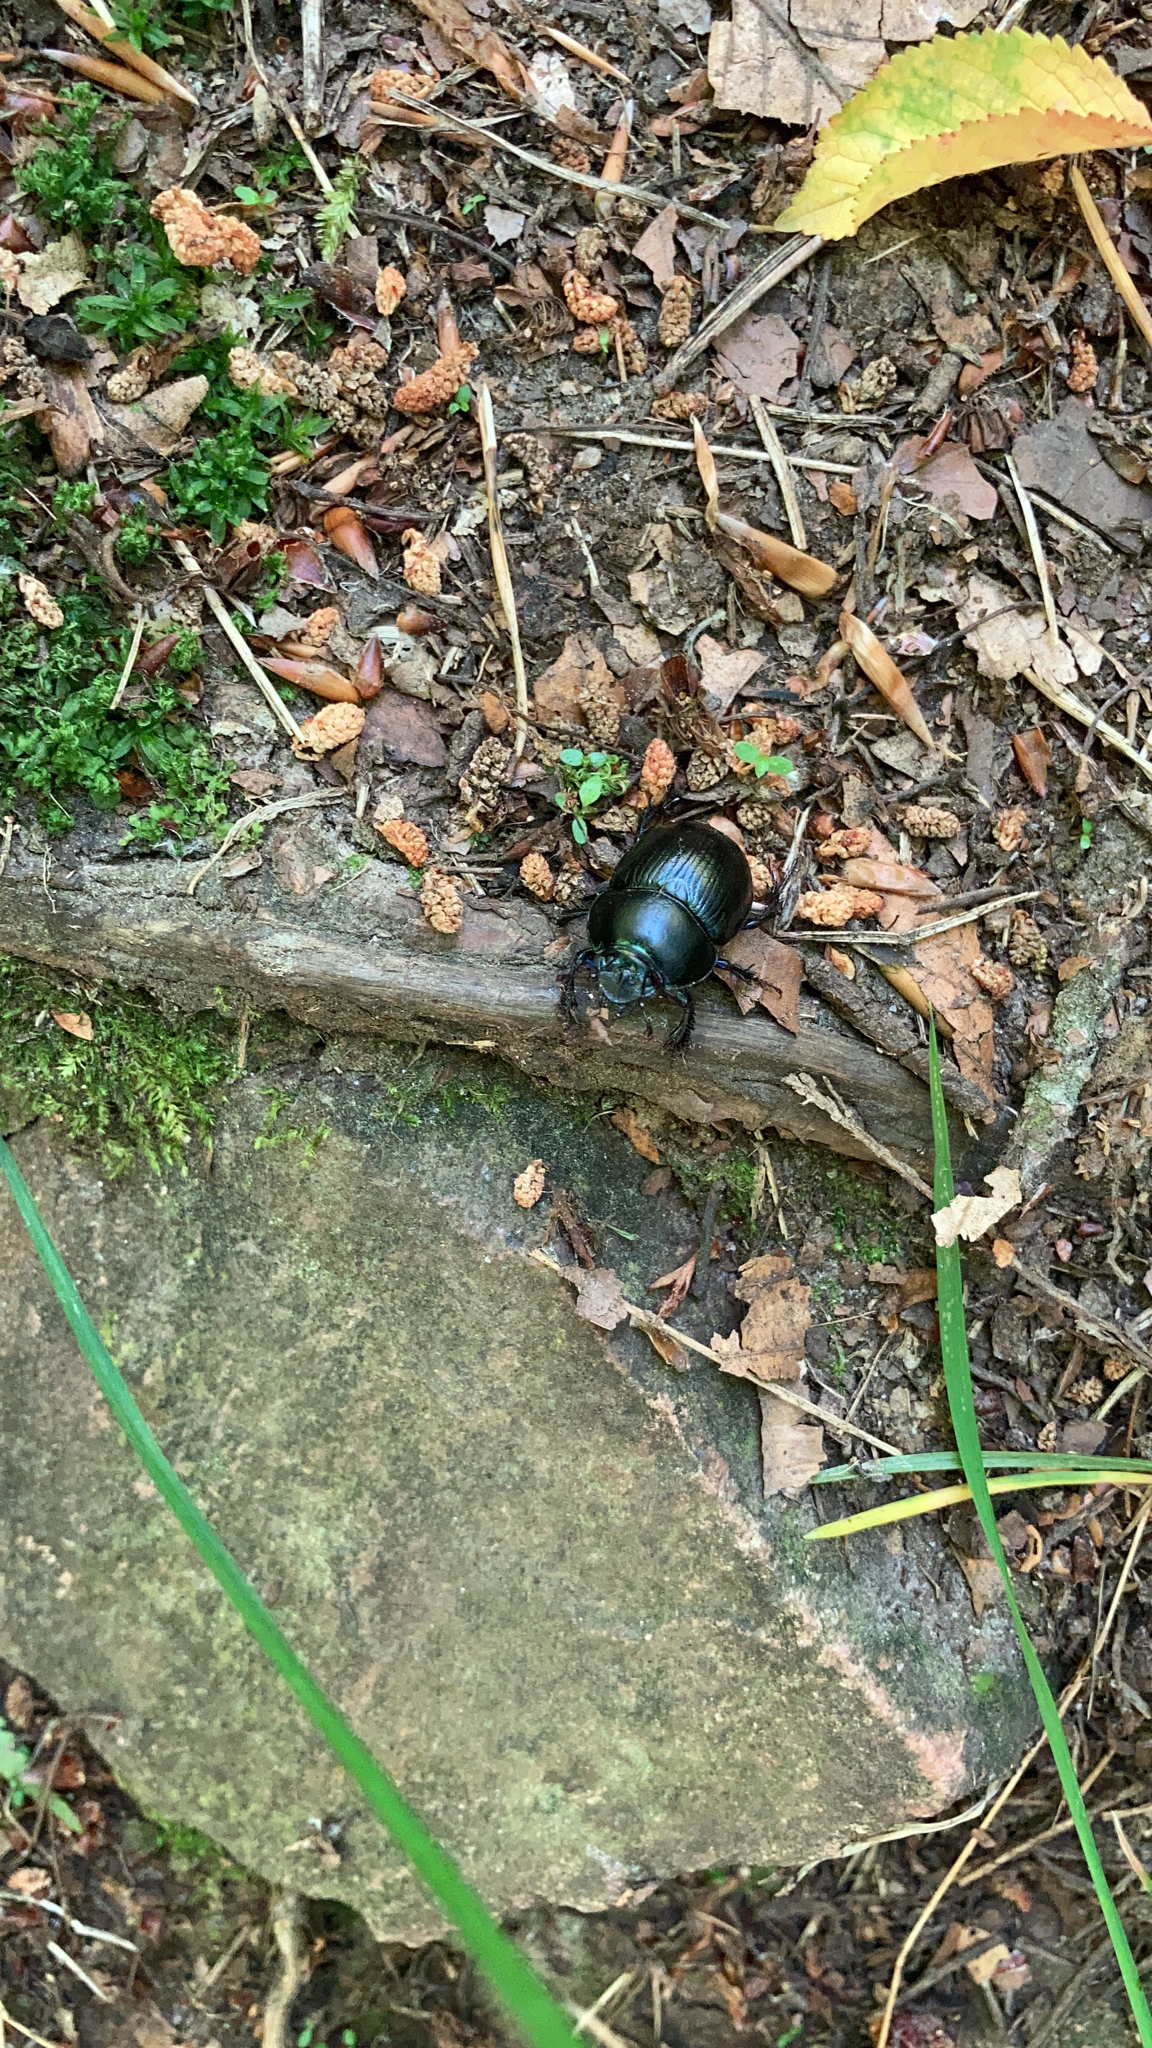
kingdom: Animalia
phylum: Arthropoda
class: Insecta
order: Coleoptera
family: Geotrupidae
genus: Anoplotrupes
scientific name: Anoplotrupes stercorosus
